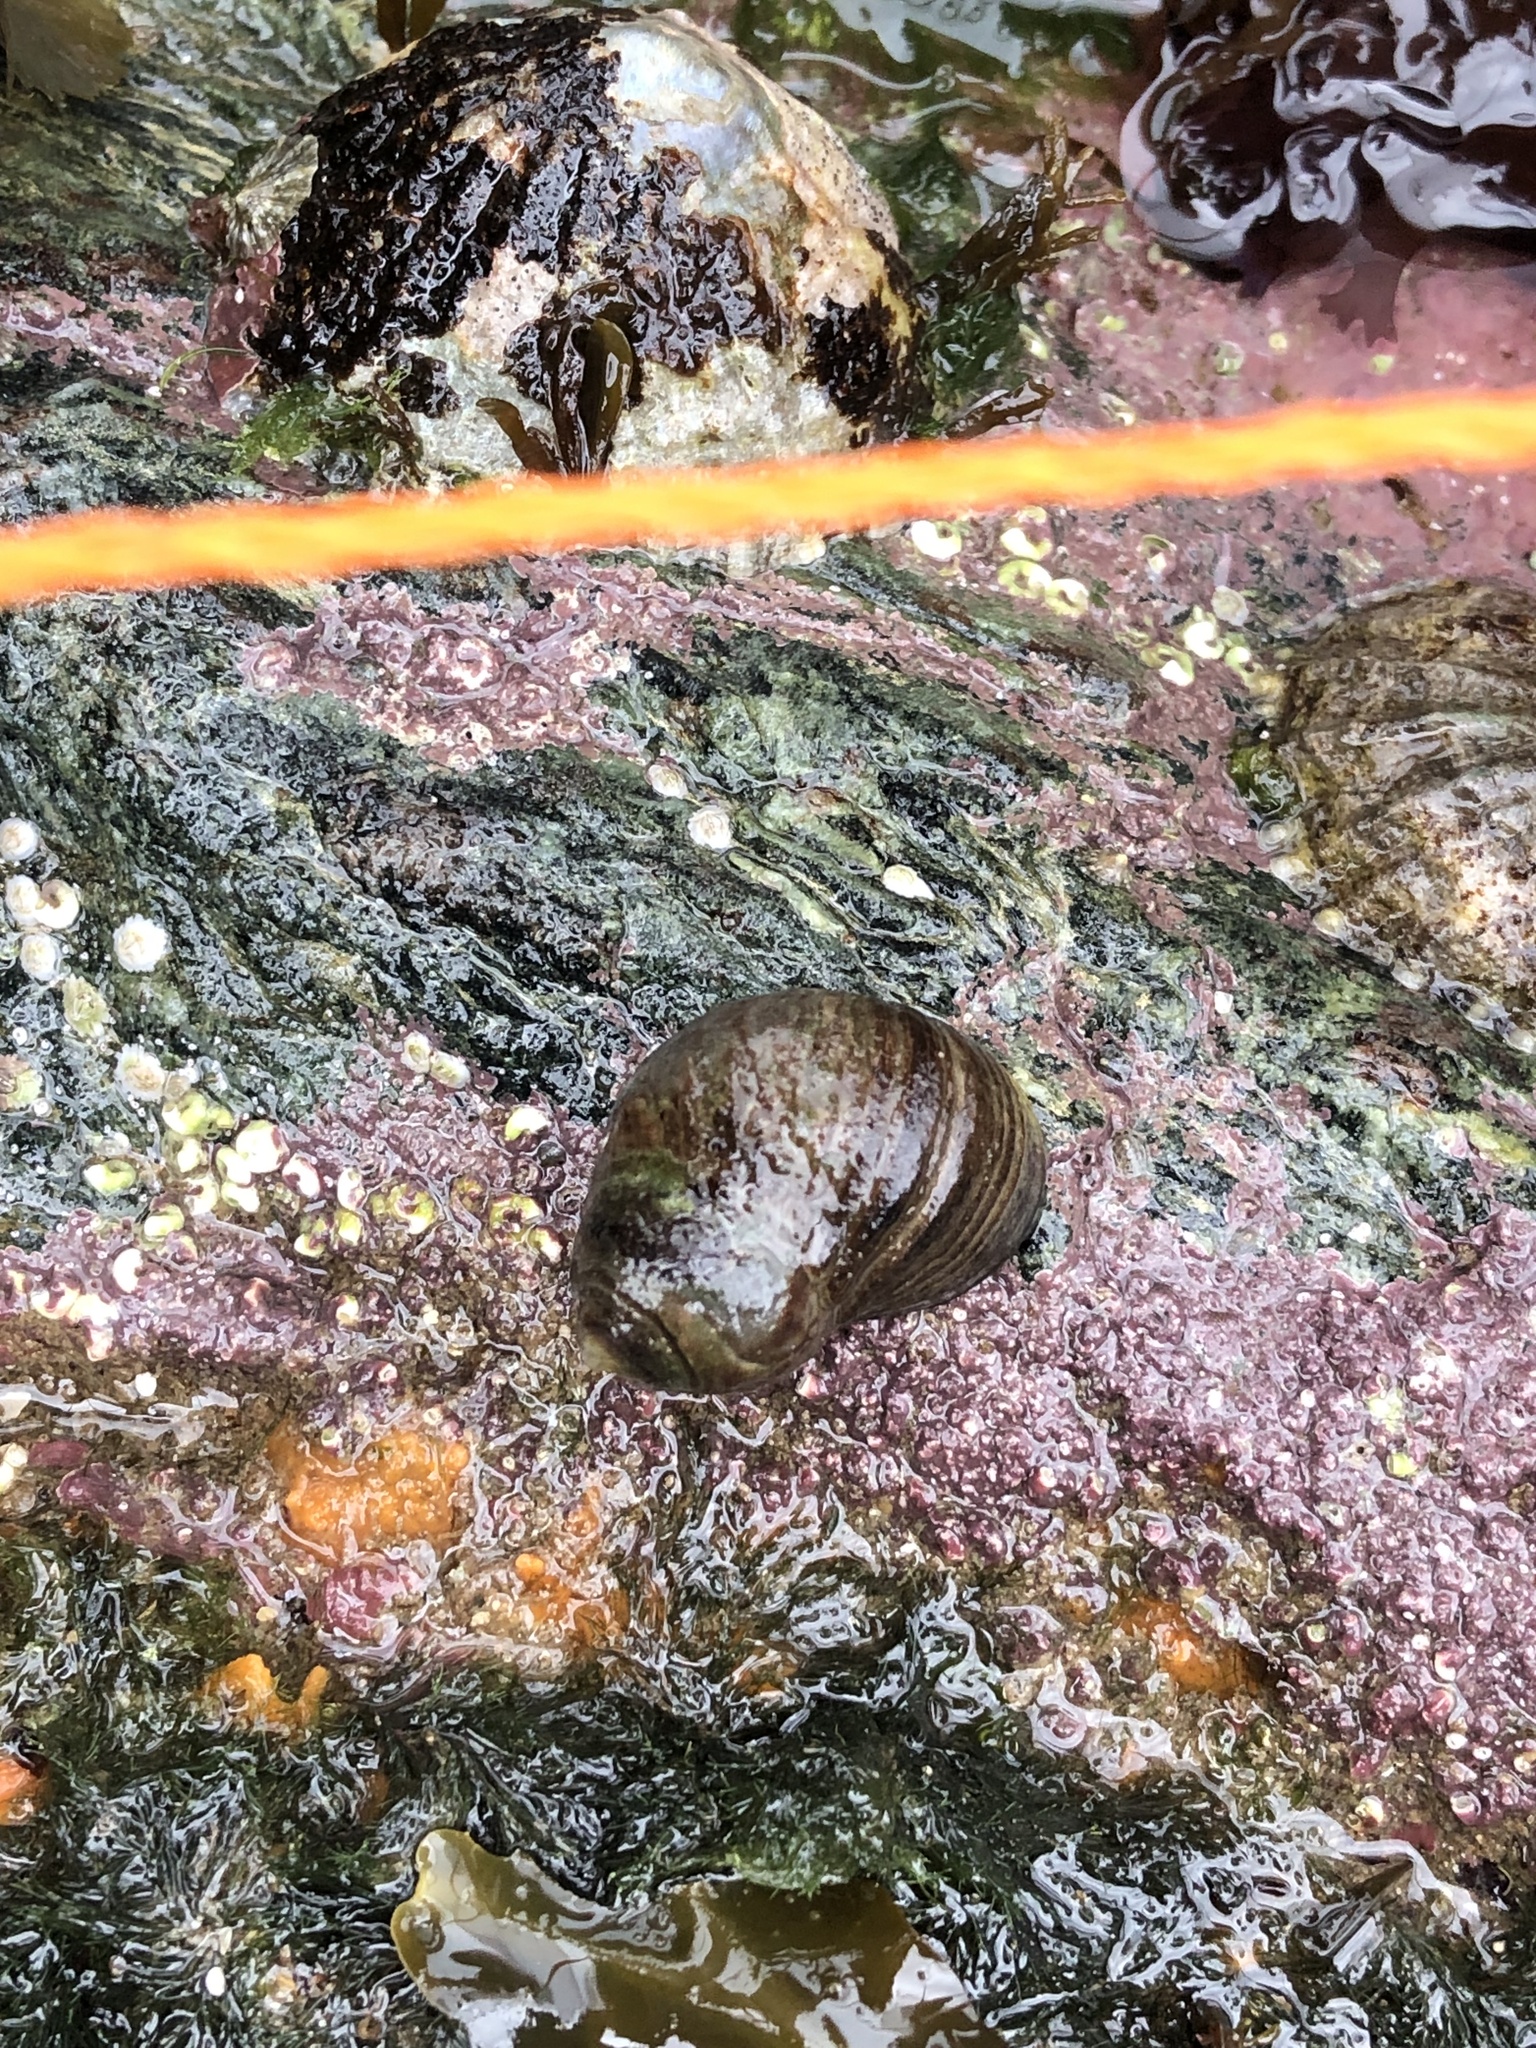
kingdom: Animalia
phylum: Mollusca
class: Gastropoda
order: Littorinimorpha
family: Littorinidae
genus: Littorina
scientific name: Littorina littorea
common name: Common periwinkle
